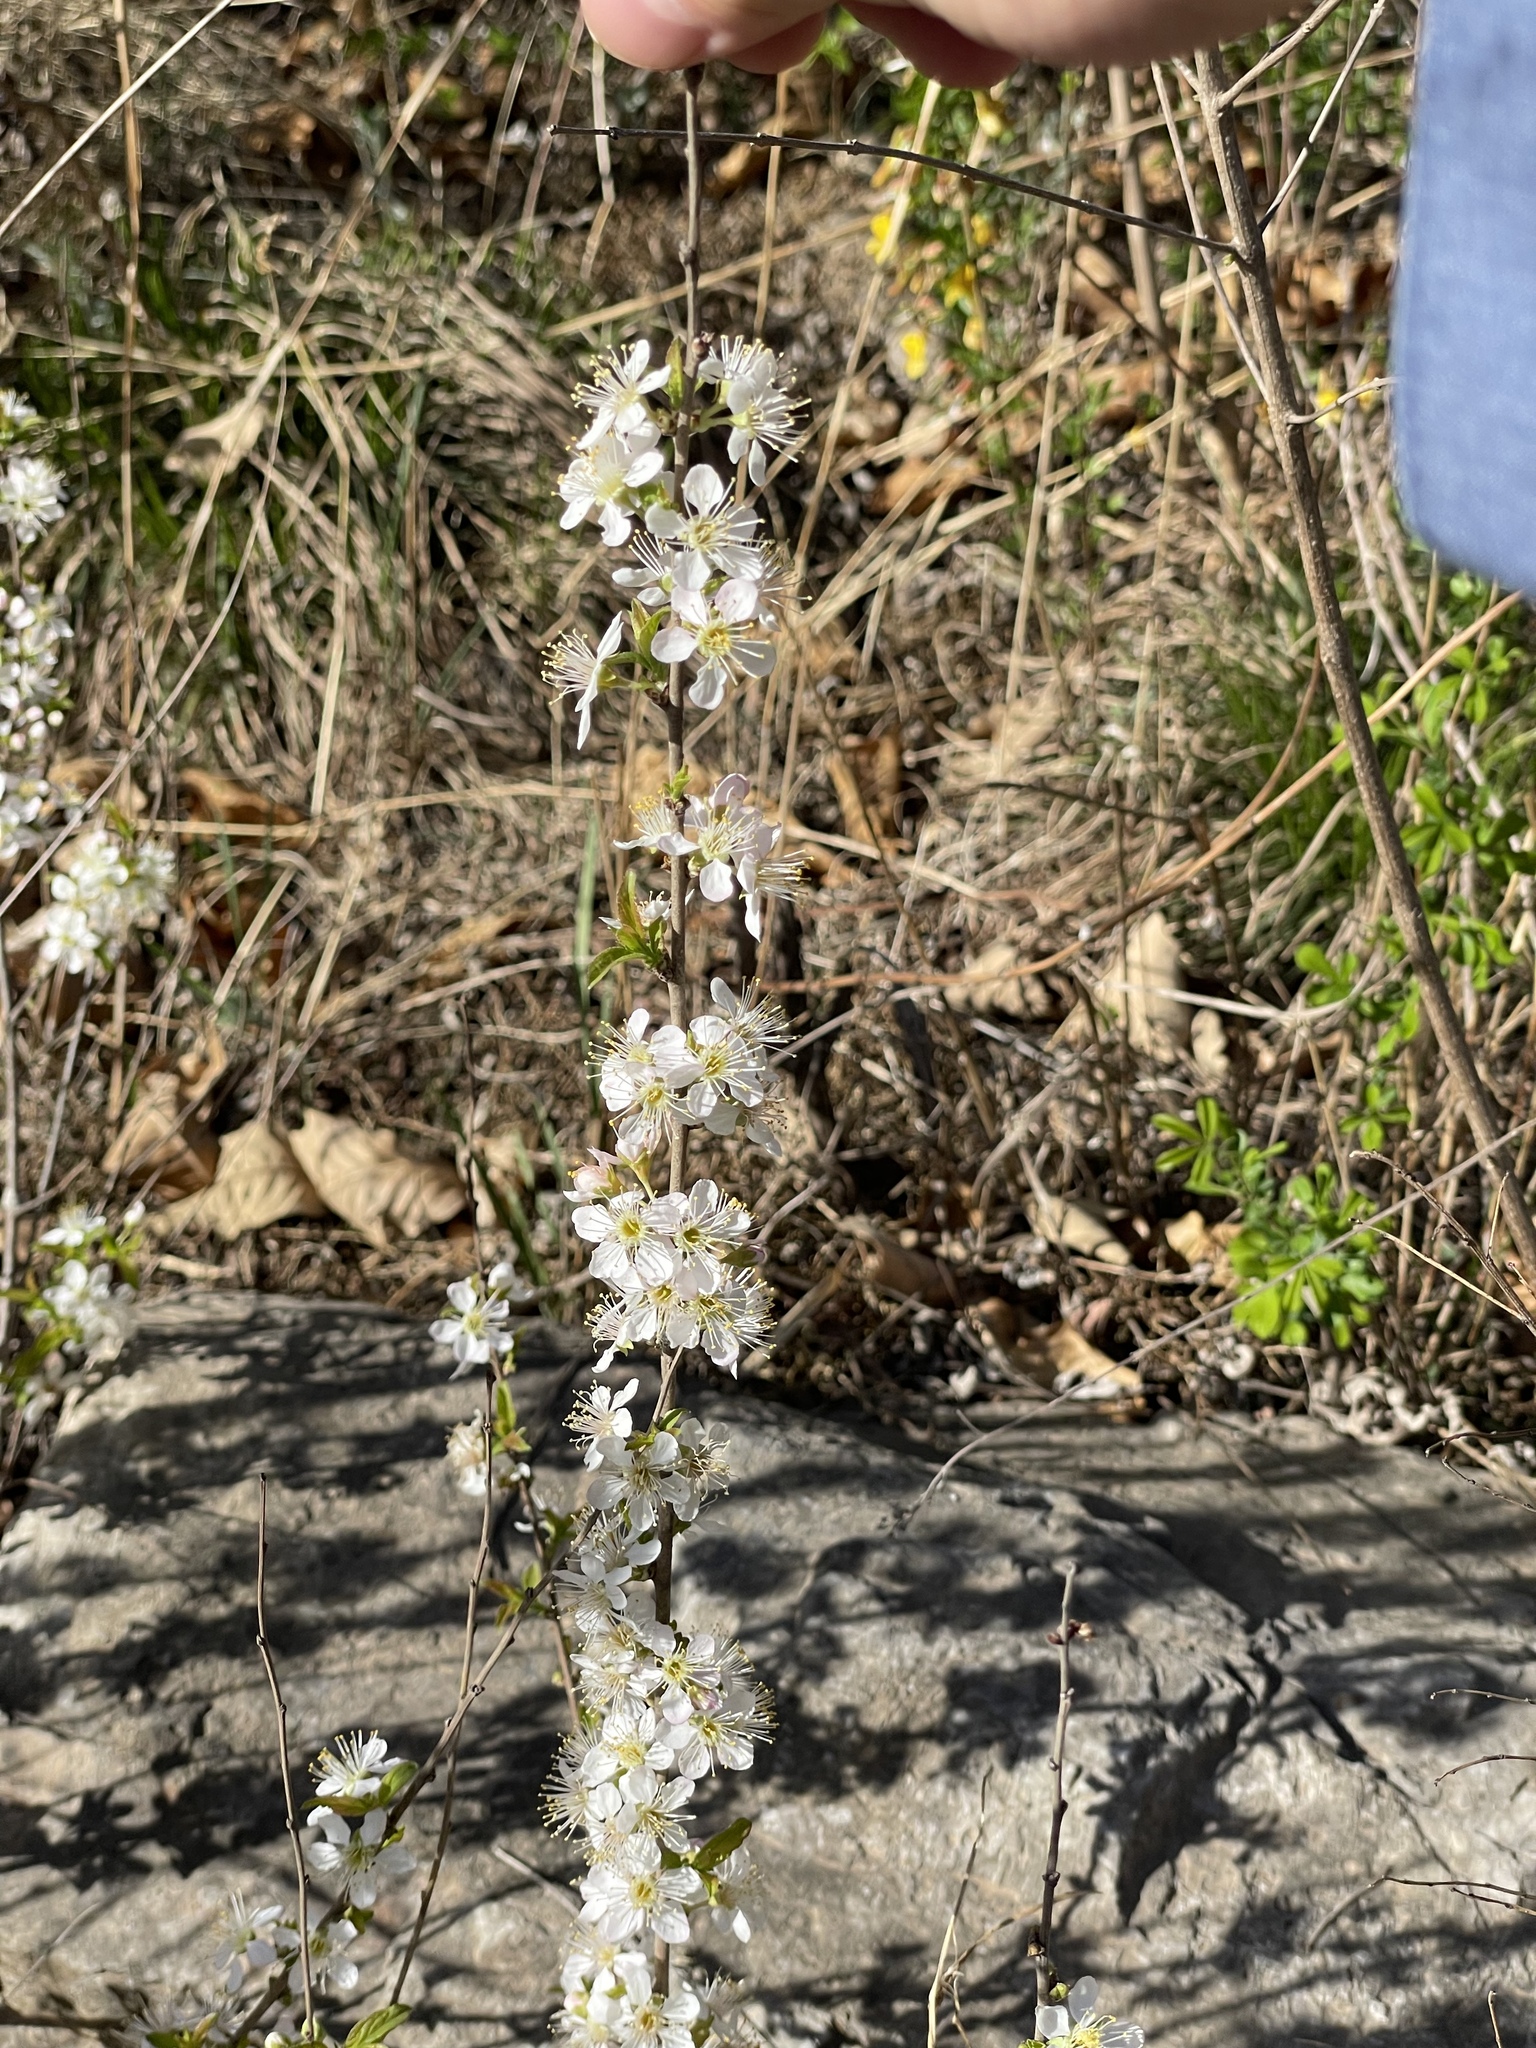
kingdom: Plantae
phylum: Tracheophyta
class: Magnoliopsida
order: Rosales
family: Rosaceae
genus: Prunus
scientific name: Prunus humilis
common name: Humble bush cherry
